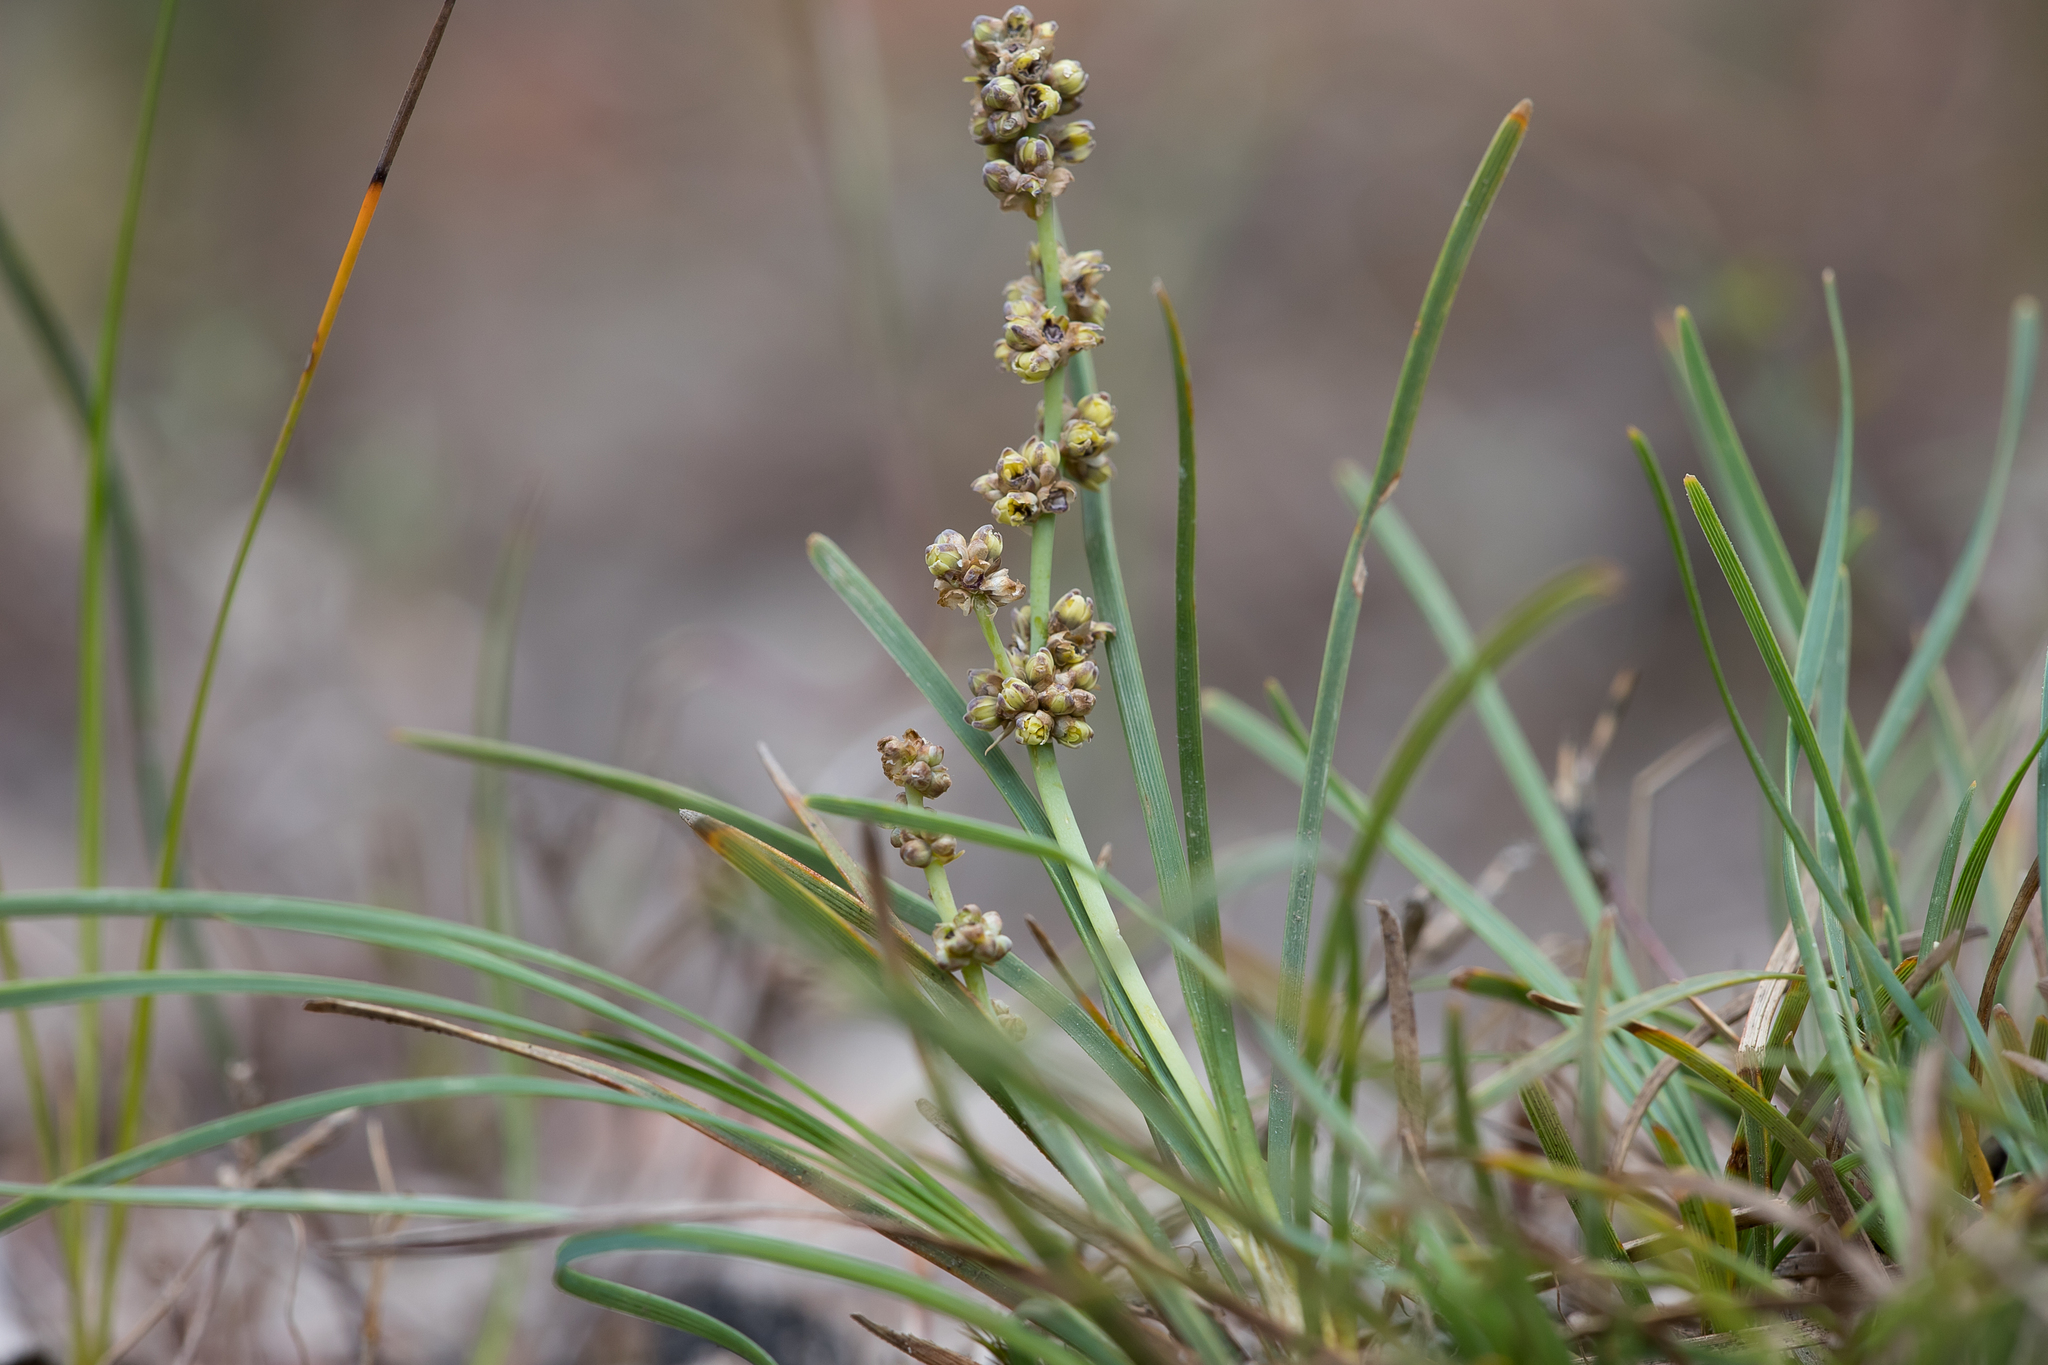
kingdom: Plantae
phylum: Tracheophyta
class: Liliopsida
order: Asparagales
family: Asparagaceae
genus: Lomandra
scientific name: Lomandra nana
